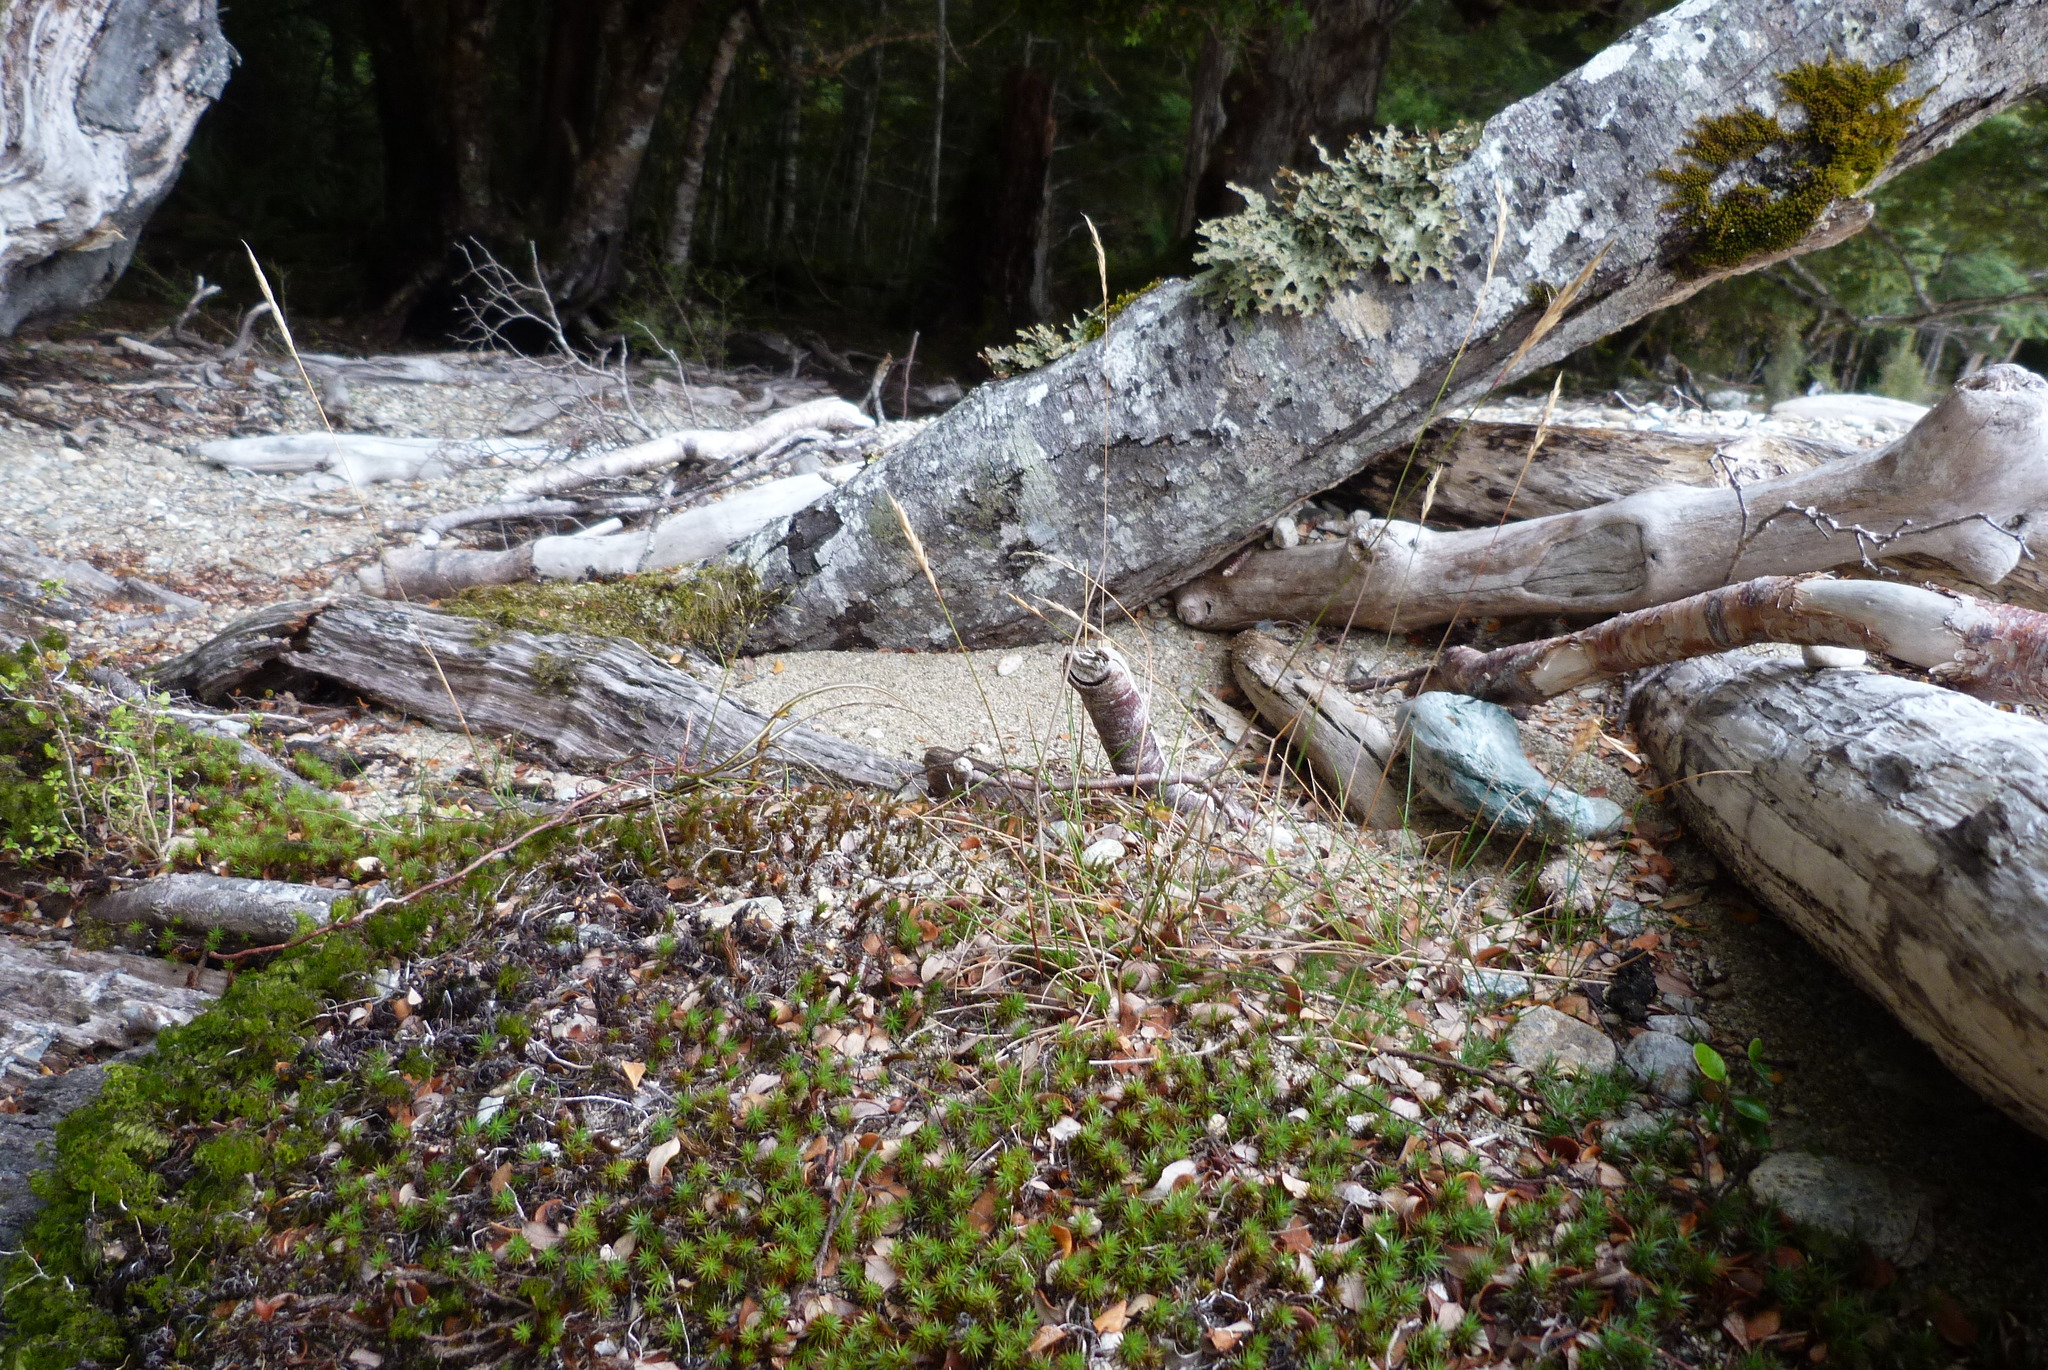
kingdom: Plantae
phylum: Tracheophyta
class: Liliopsida
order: Poales
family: Poaceae
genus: Calamagrostis
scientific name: Calamagrostis avenoides
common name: Mountain oat grass
